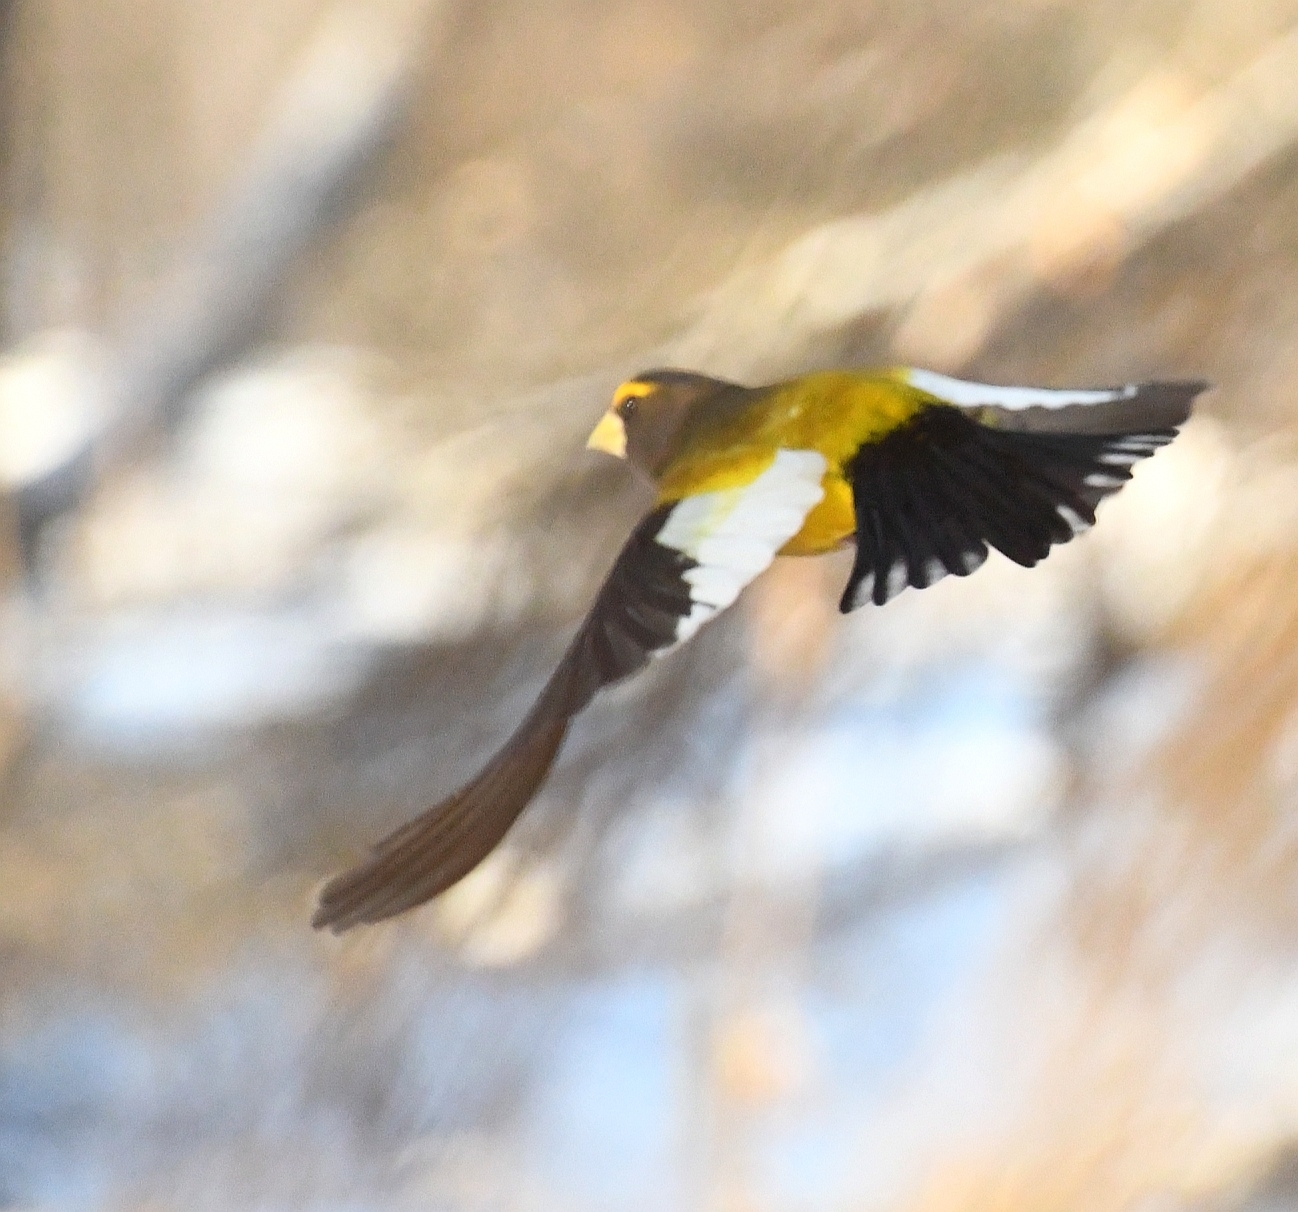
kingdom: Animalia
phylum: Chordata
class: Aves
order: Passeriformes
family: Fringillidae
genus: Hesperiphona
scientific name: Hesperiphona vespertina
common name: Evening grosbeak
